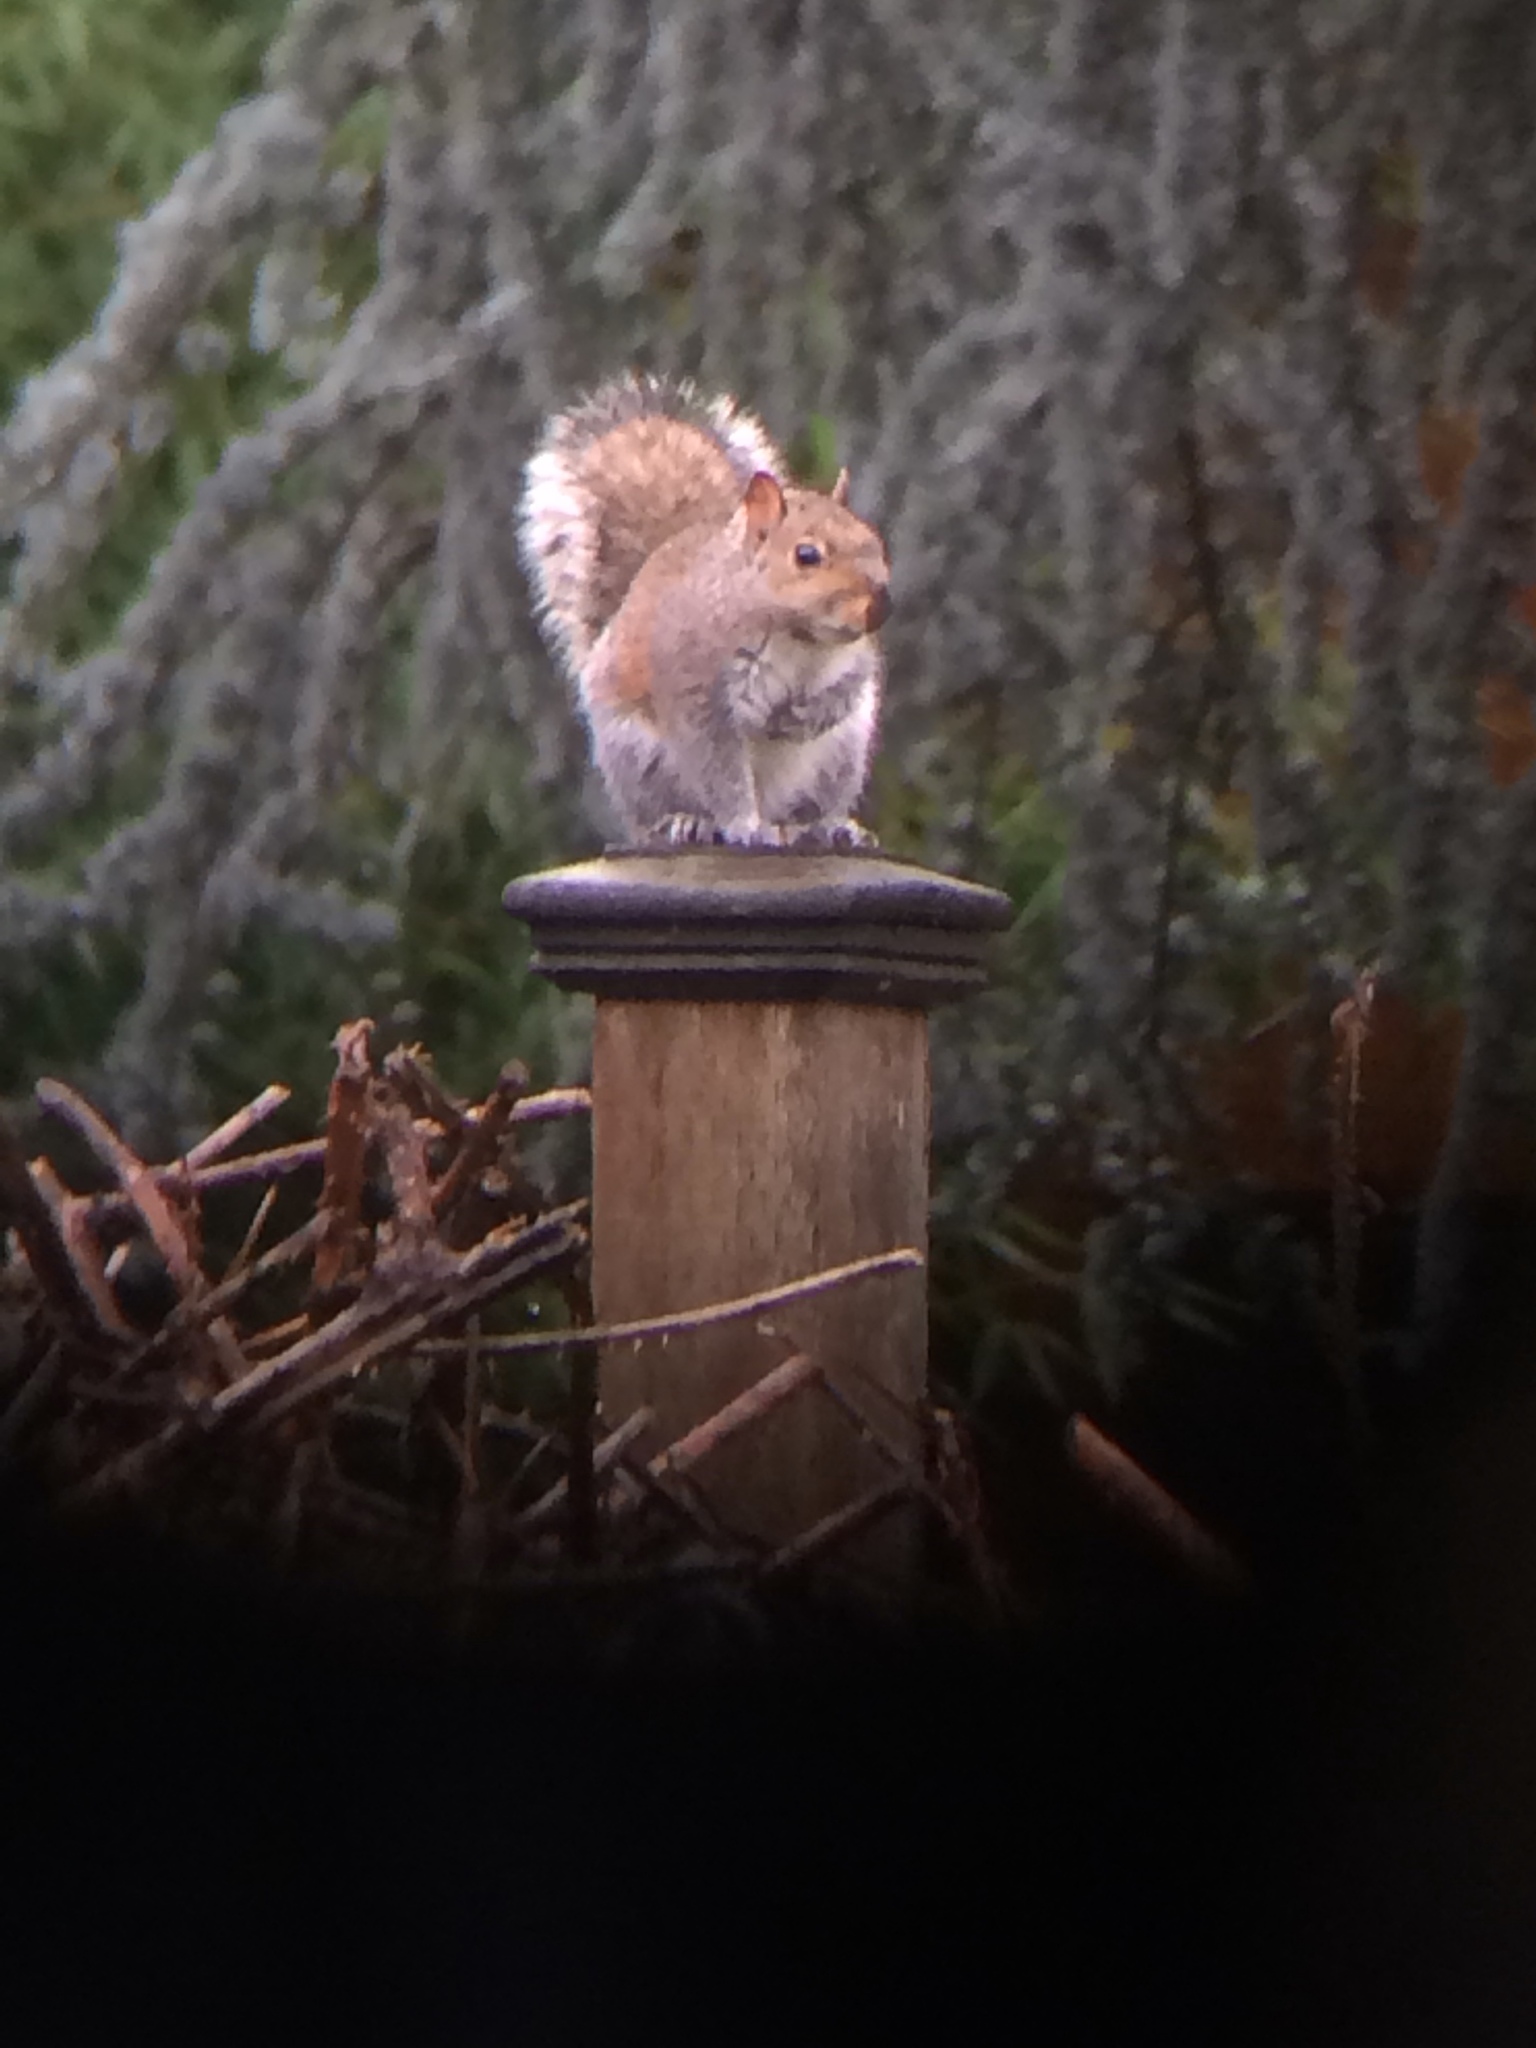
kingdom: Animalia
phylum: Chordata
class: Mammalia
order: Rodentia
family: Sciuridae
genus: Sciurus
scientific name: Sciurus carolinensis
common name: Eastern gray squirrel
